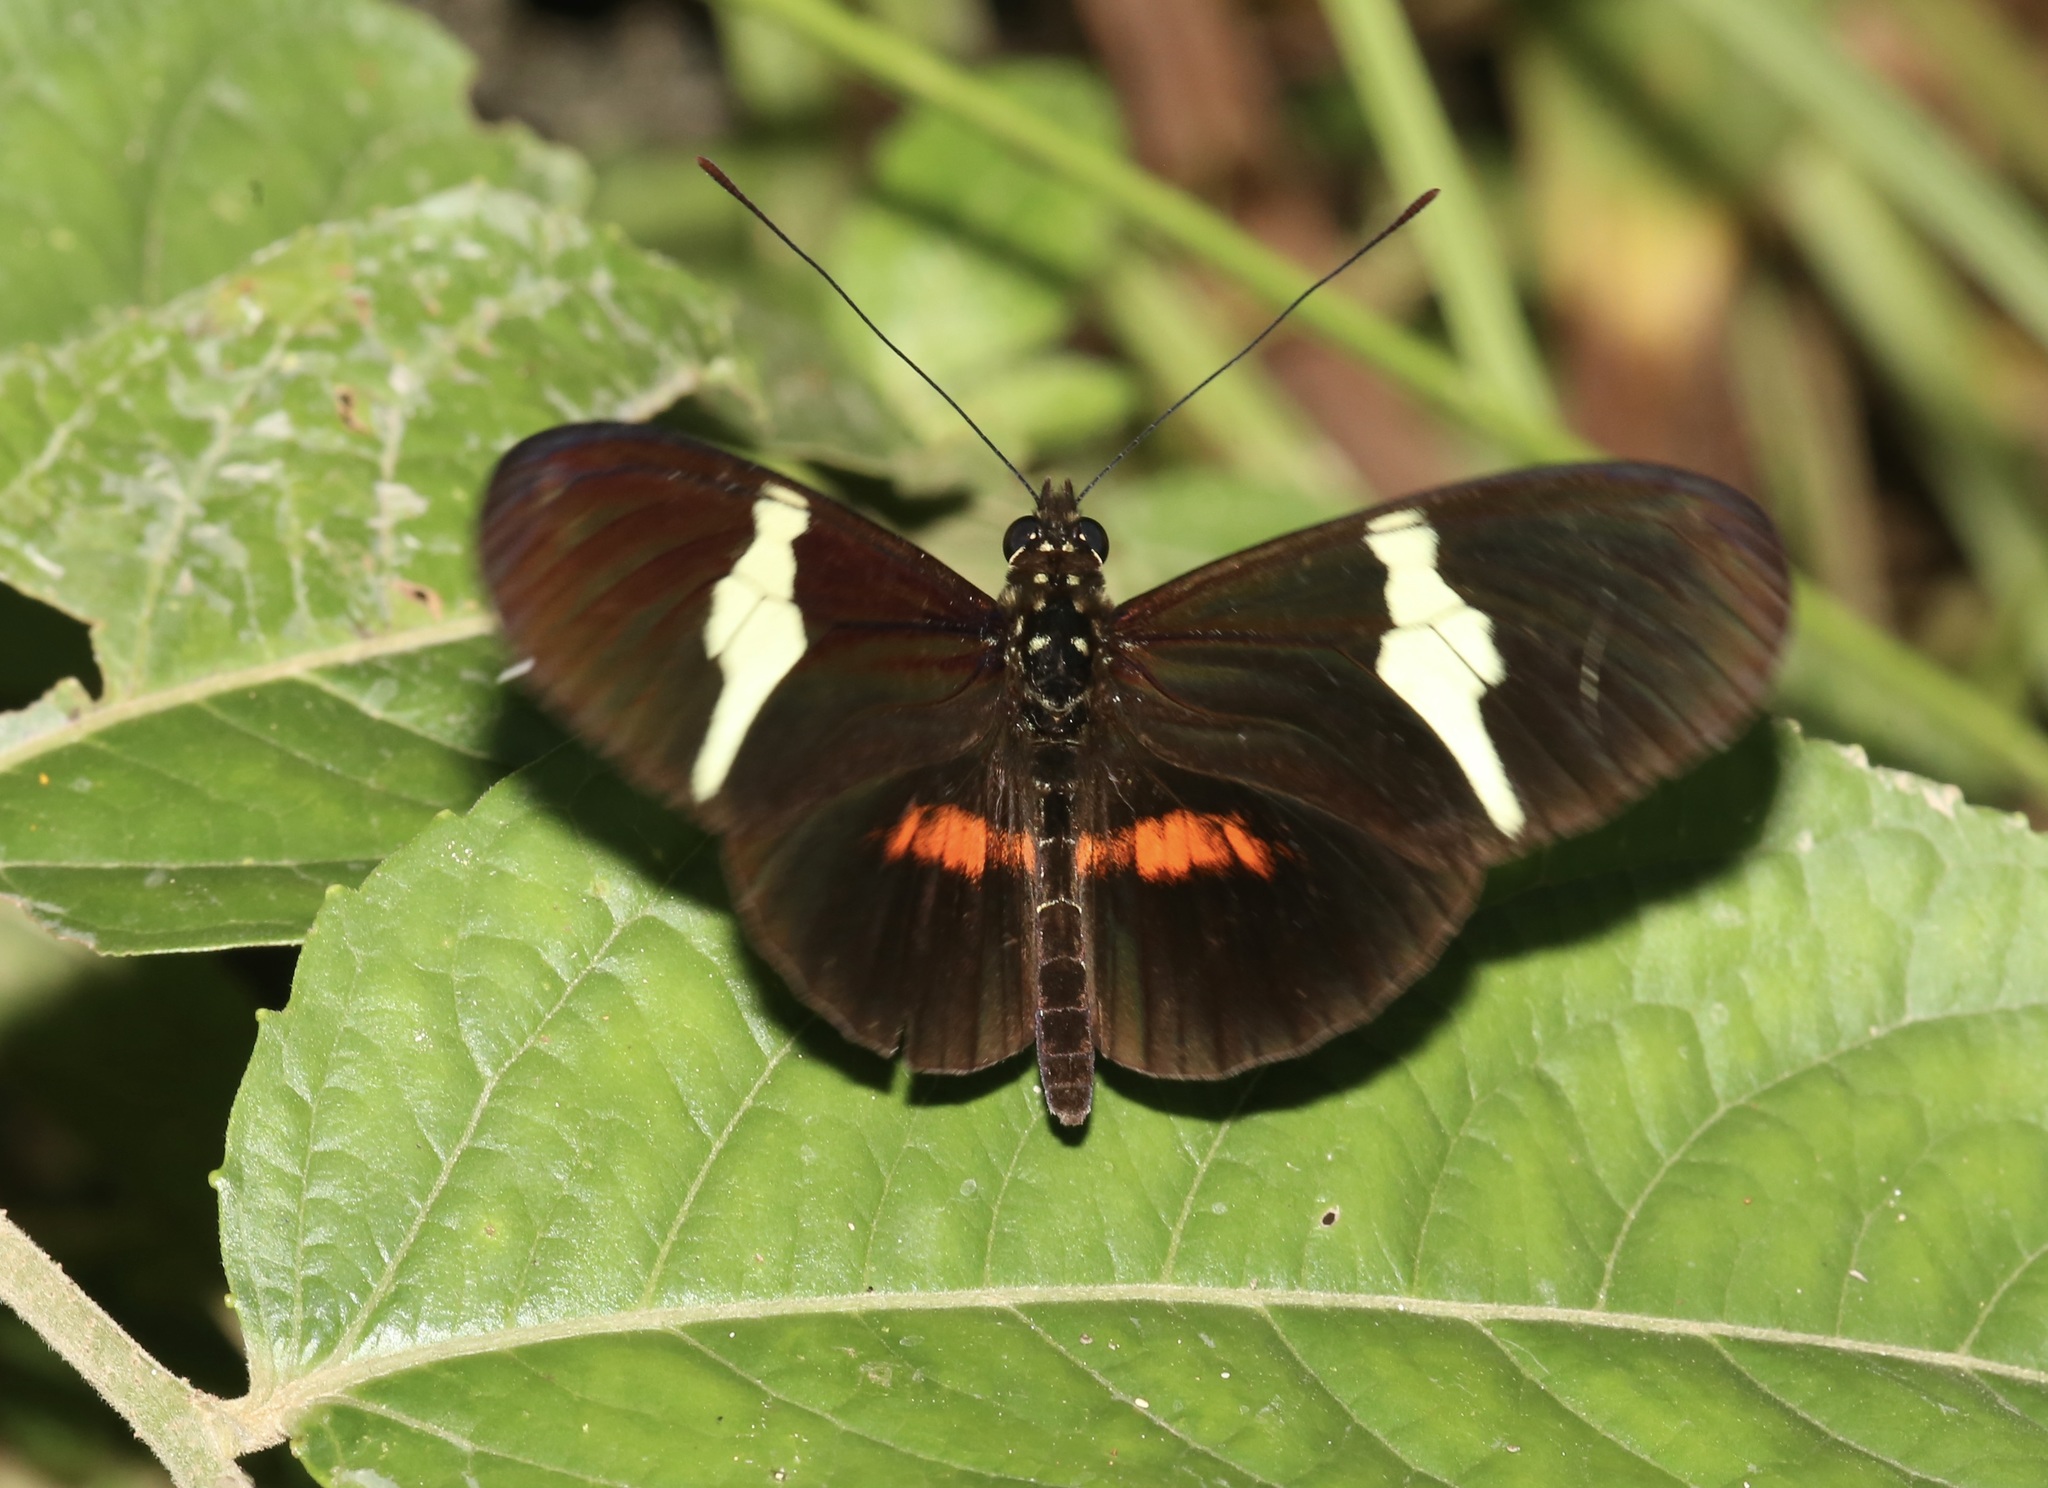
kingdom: Animalia
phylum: Arthropoda
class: Insecta
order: Lepidoptera
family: Nymphalidae
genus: Heliconius
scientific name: Heliconius clysonymus
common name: Clysonymus longwing
